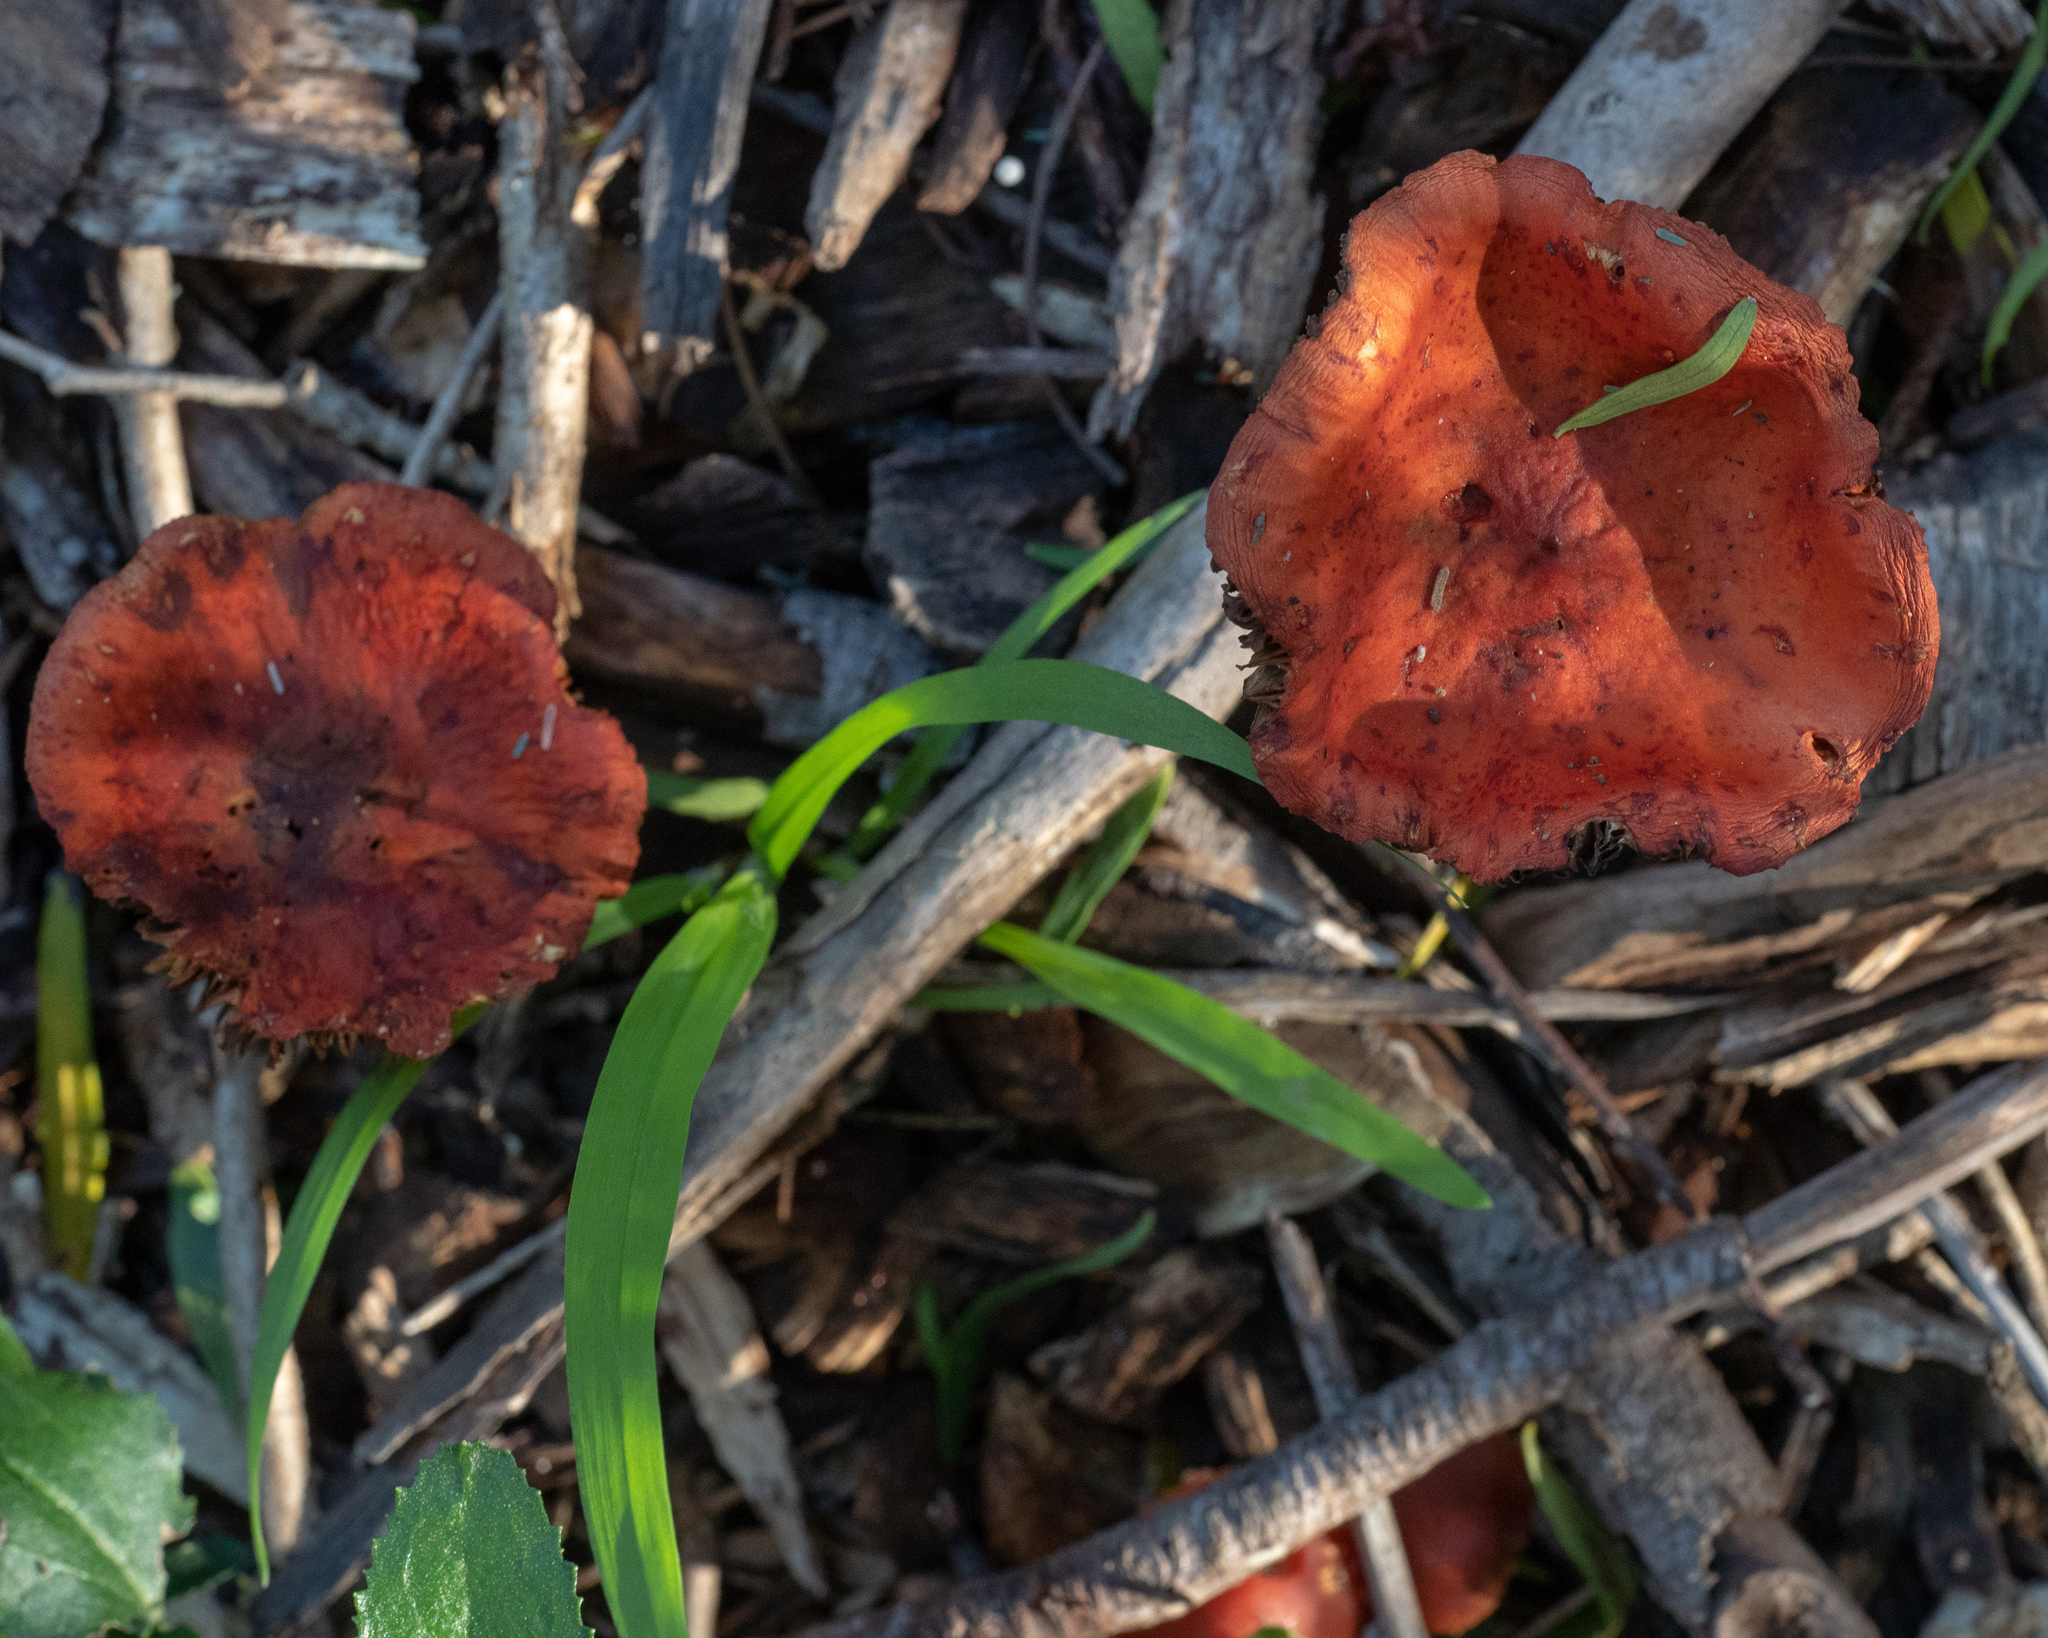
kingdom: Fungi
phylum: Basidiomycota
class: Agaricomycetes
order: Agaricales
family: Strophariaceae
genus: Leratiomyces
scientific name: Leratiomyces ceres
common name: Redlead roundhead
